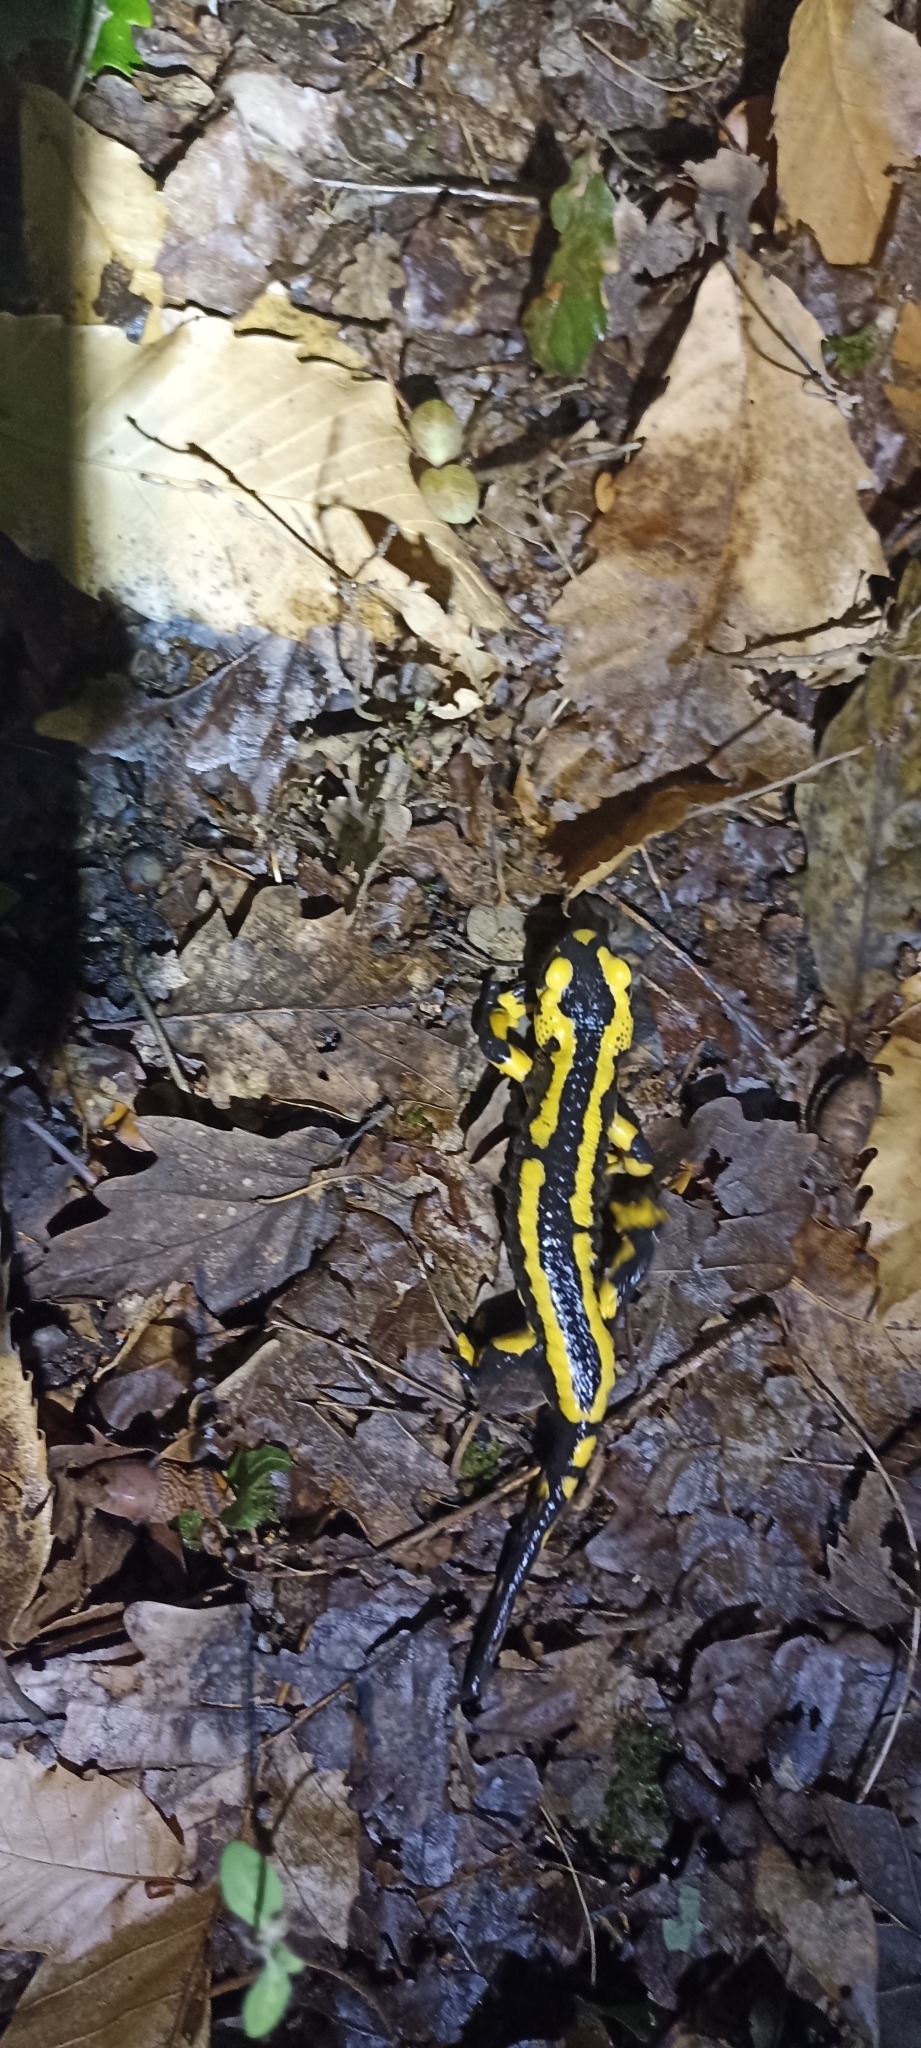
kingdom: Animalia
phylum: Chordata
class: Amphibia
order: Caudata
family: Salamandridae
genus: Salamandra
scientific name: Salamandra salamandra
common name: Fire salamander
